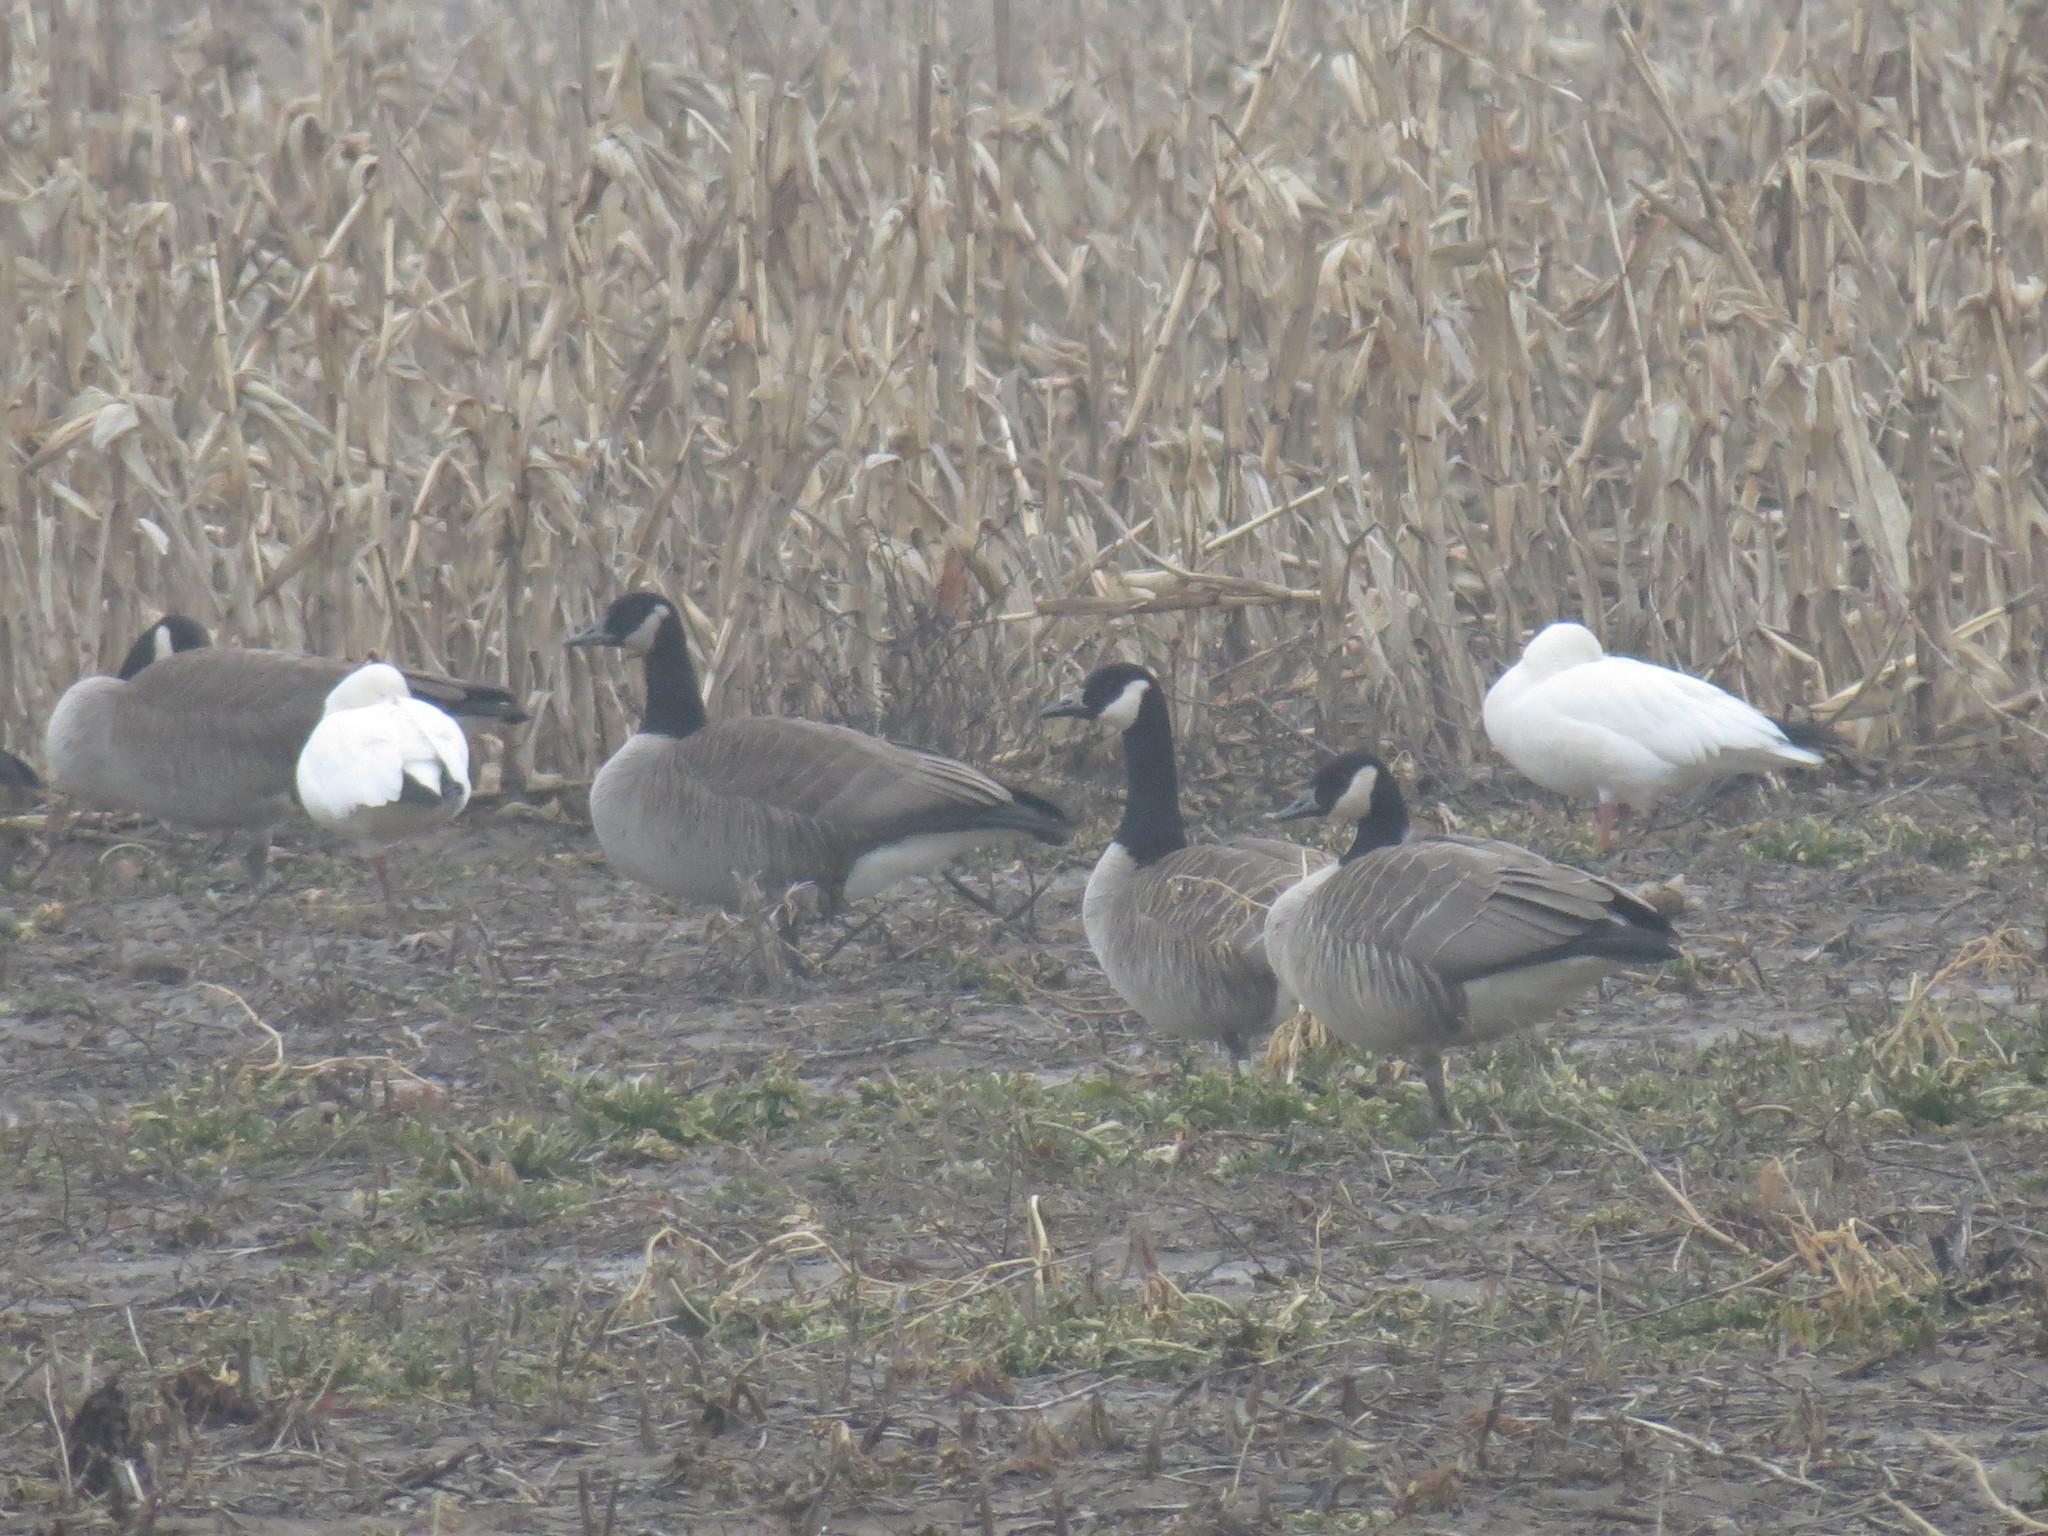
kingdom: Animalia
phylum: Chordata
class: Aves
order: Anseriformes
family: Anatidae
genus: Anser
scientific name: Anser rossii
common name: Ross's goose
